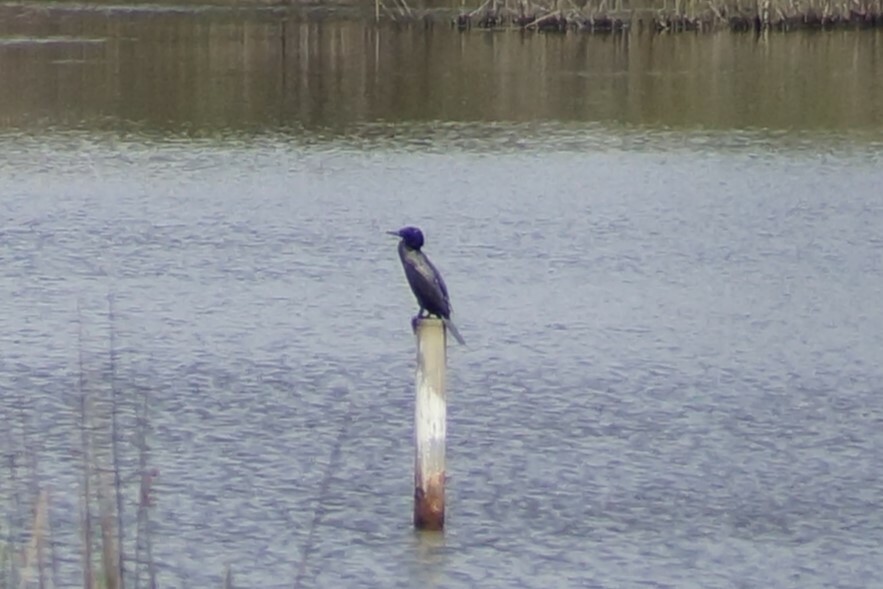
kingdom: Animalia
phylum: Chordata
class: Aves
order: Suliformes
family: Phalacrocoracidae
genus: Phalacrocorax
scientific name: Phalacrocorax sulcirostris
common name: Little black cormorant
